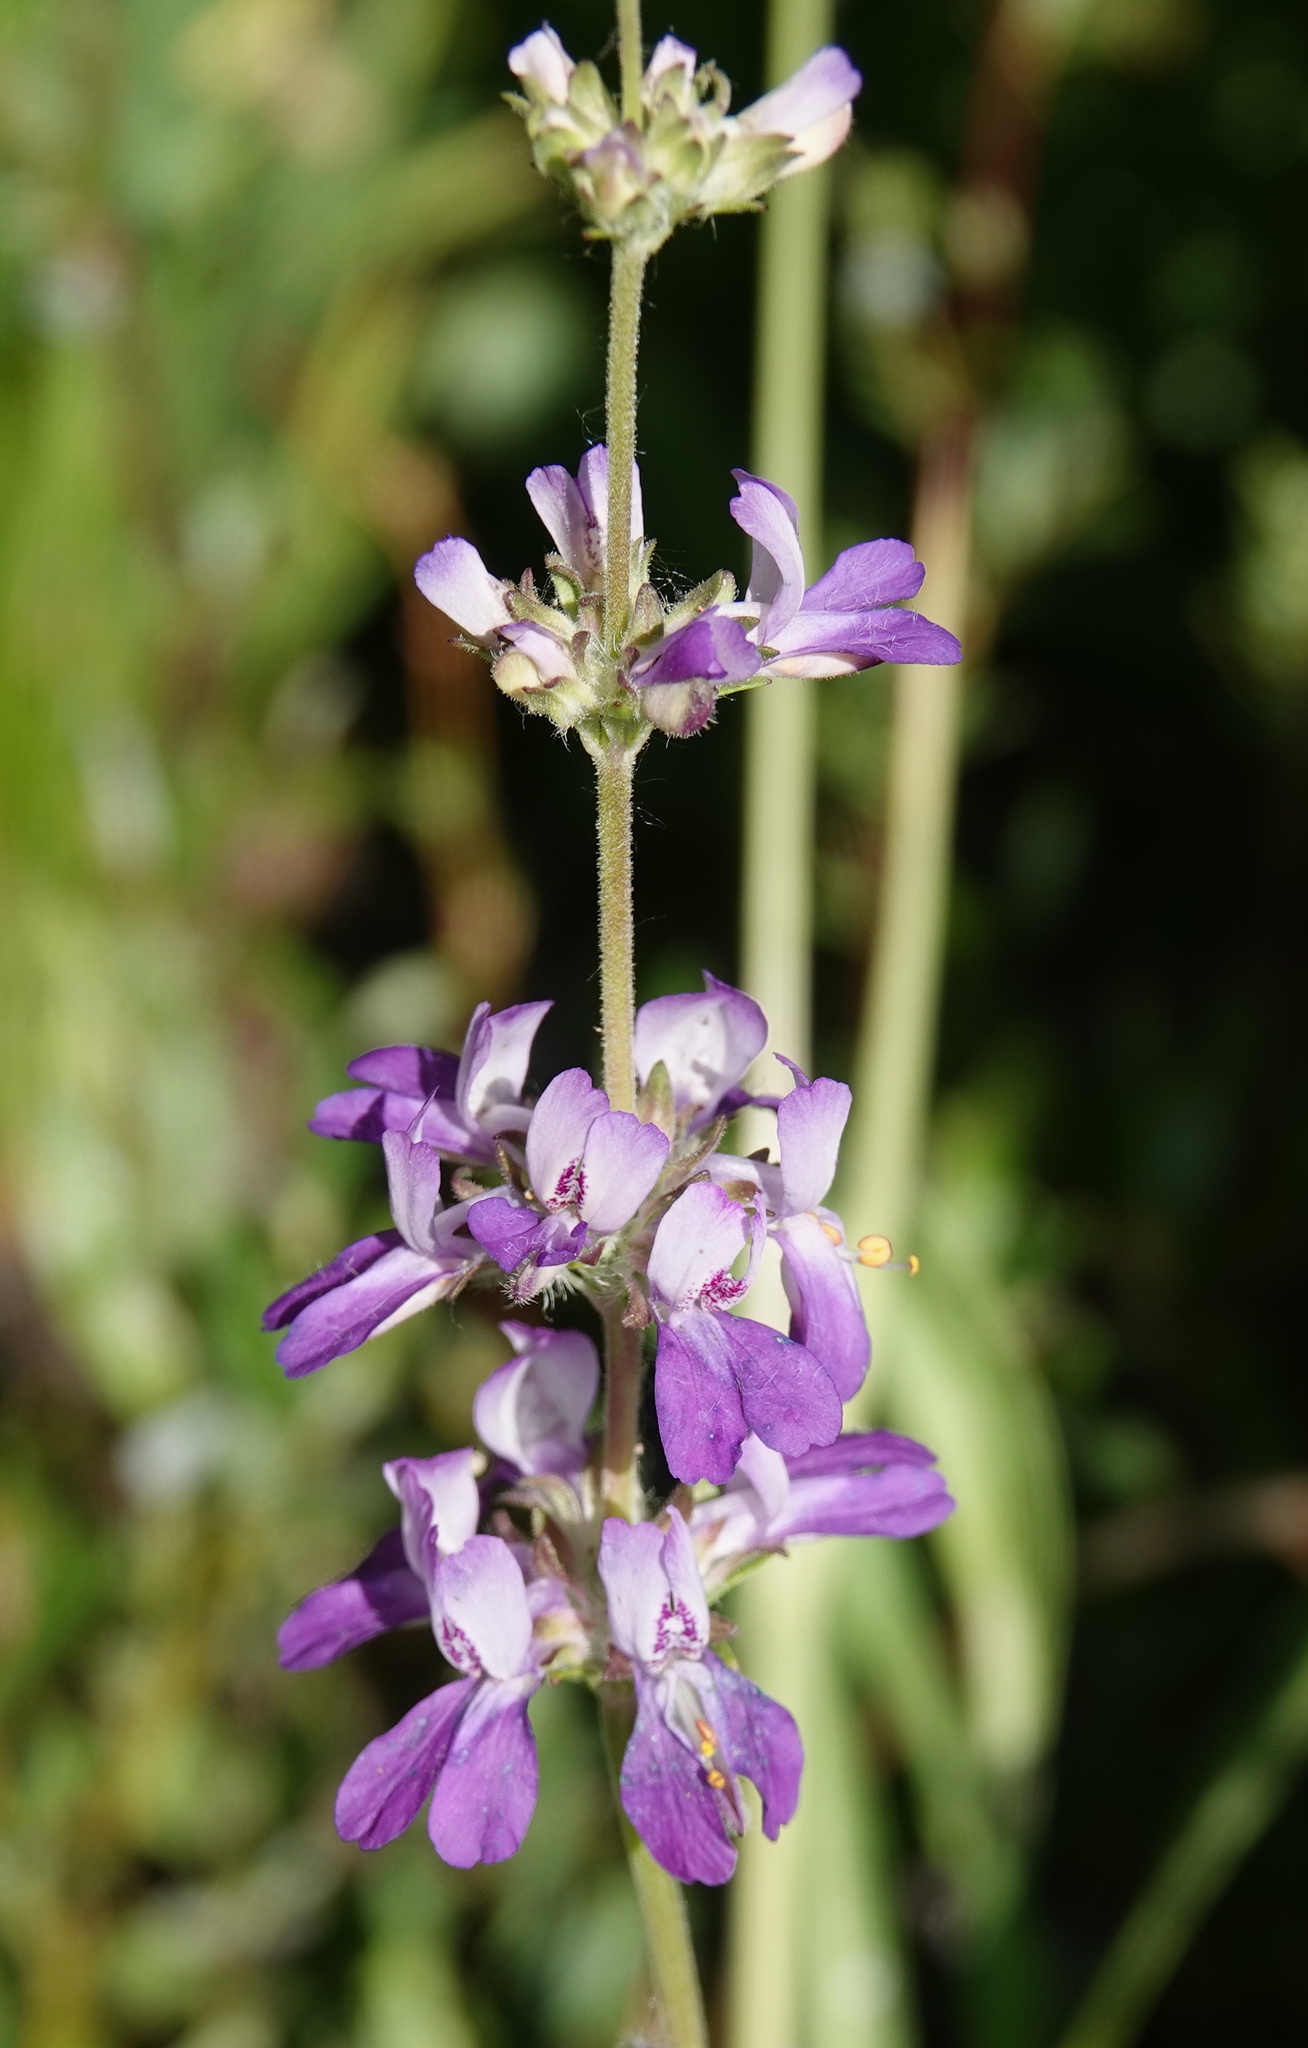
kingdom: Plantae
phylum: Tracheophyta
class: Magnoliopsida
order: Lamiales
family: Plantaginaceae
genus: Collinsia
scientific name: Collinsia concolor
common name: Chinese houses
